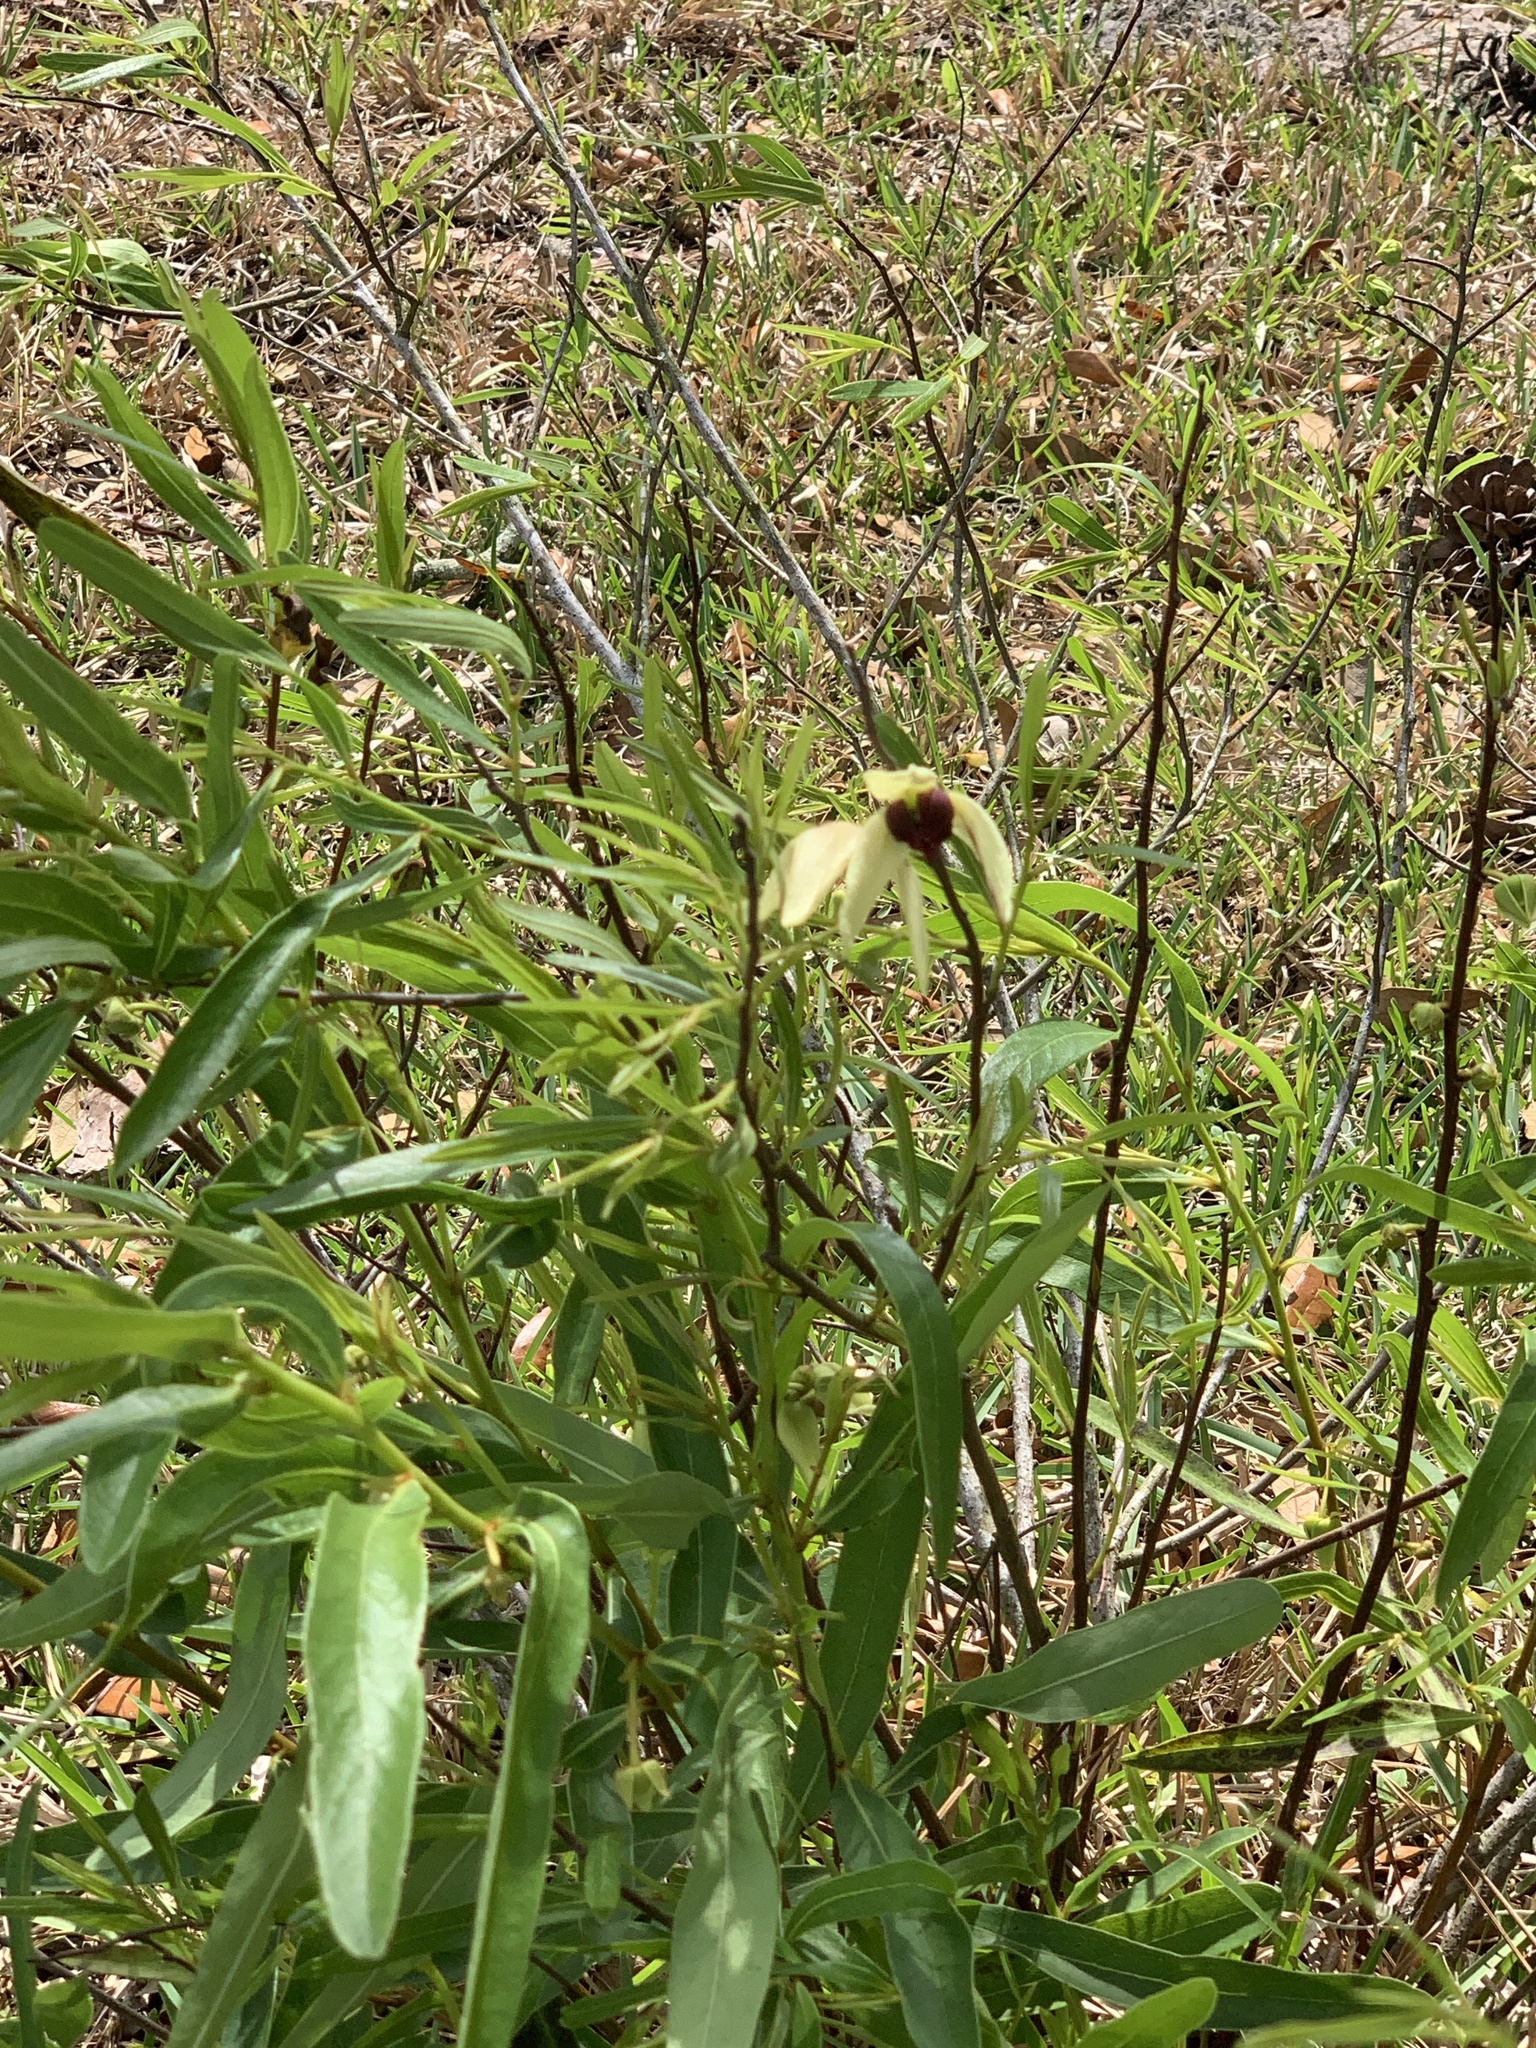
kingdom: Plantae
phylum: Tracheophyta
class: Magnoliopsida
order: Magnoliales
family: Annonaceae
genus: Asimina
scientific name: Asimina bethanyensis
